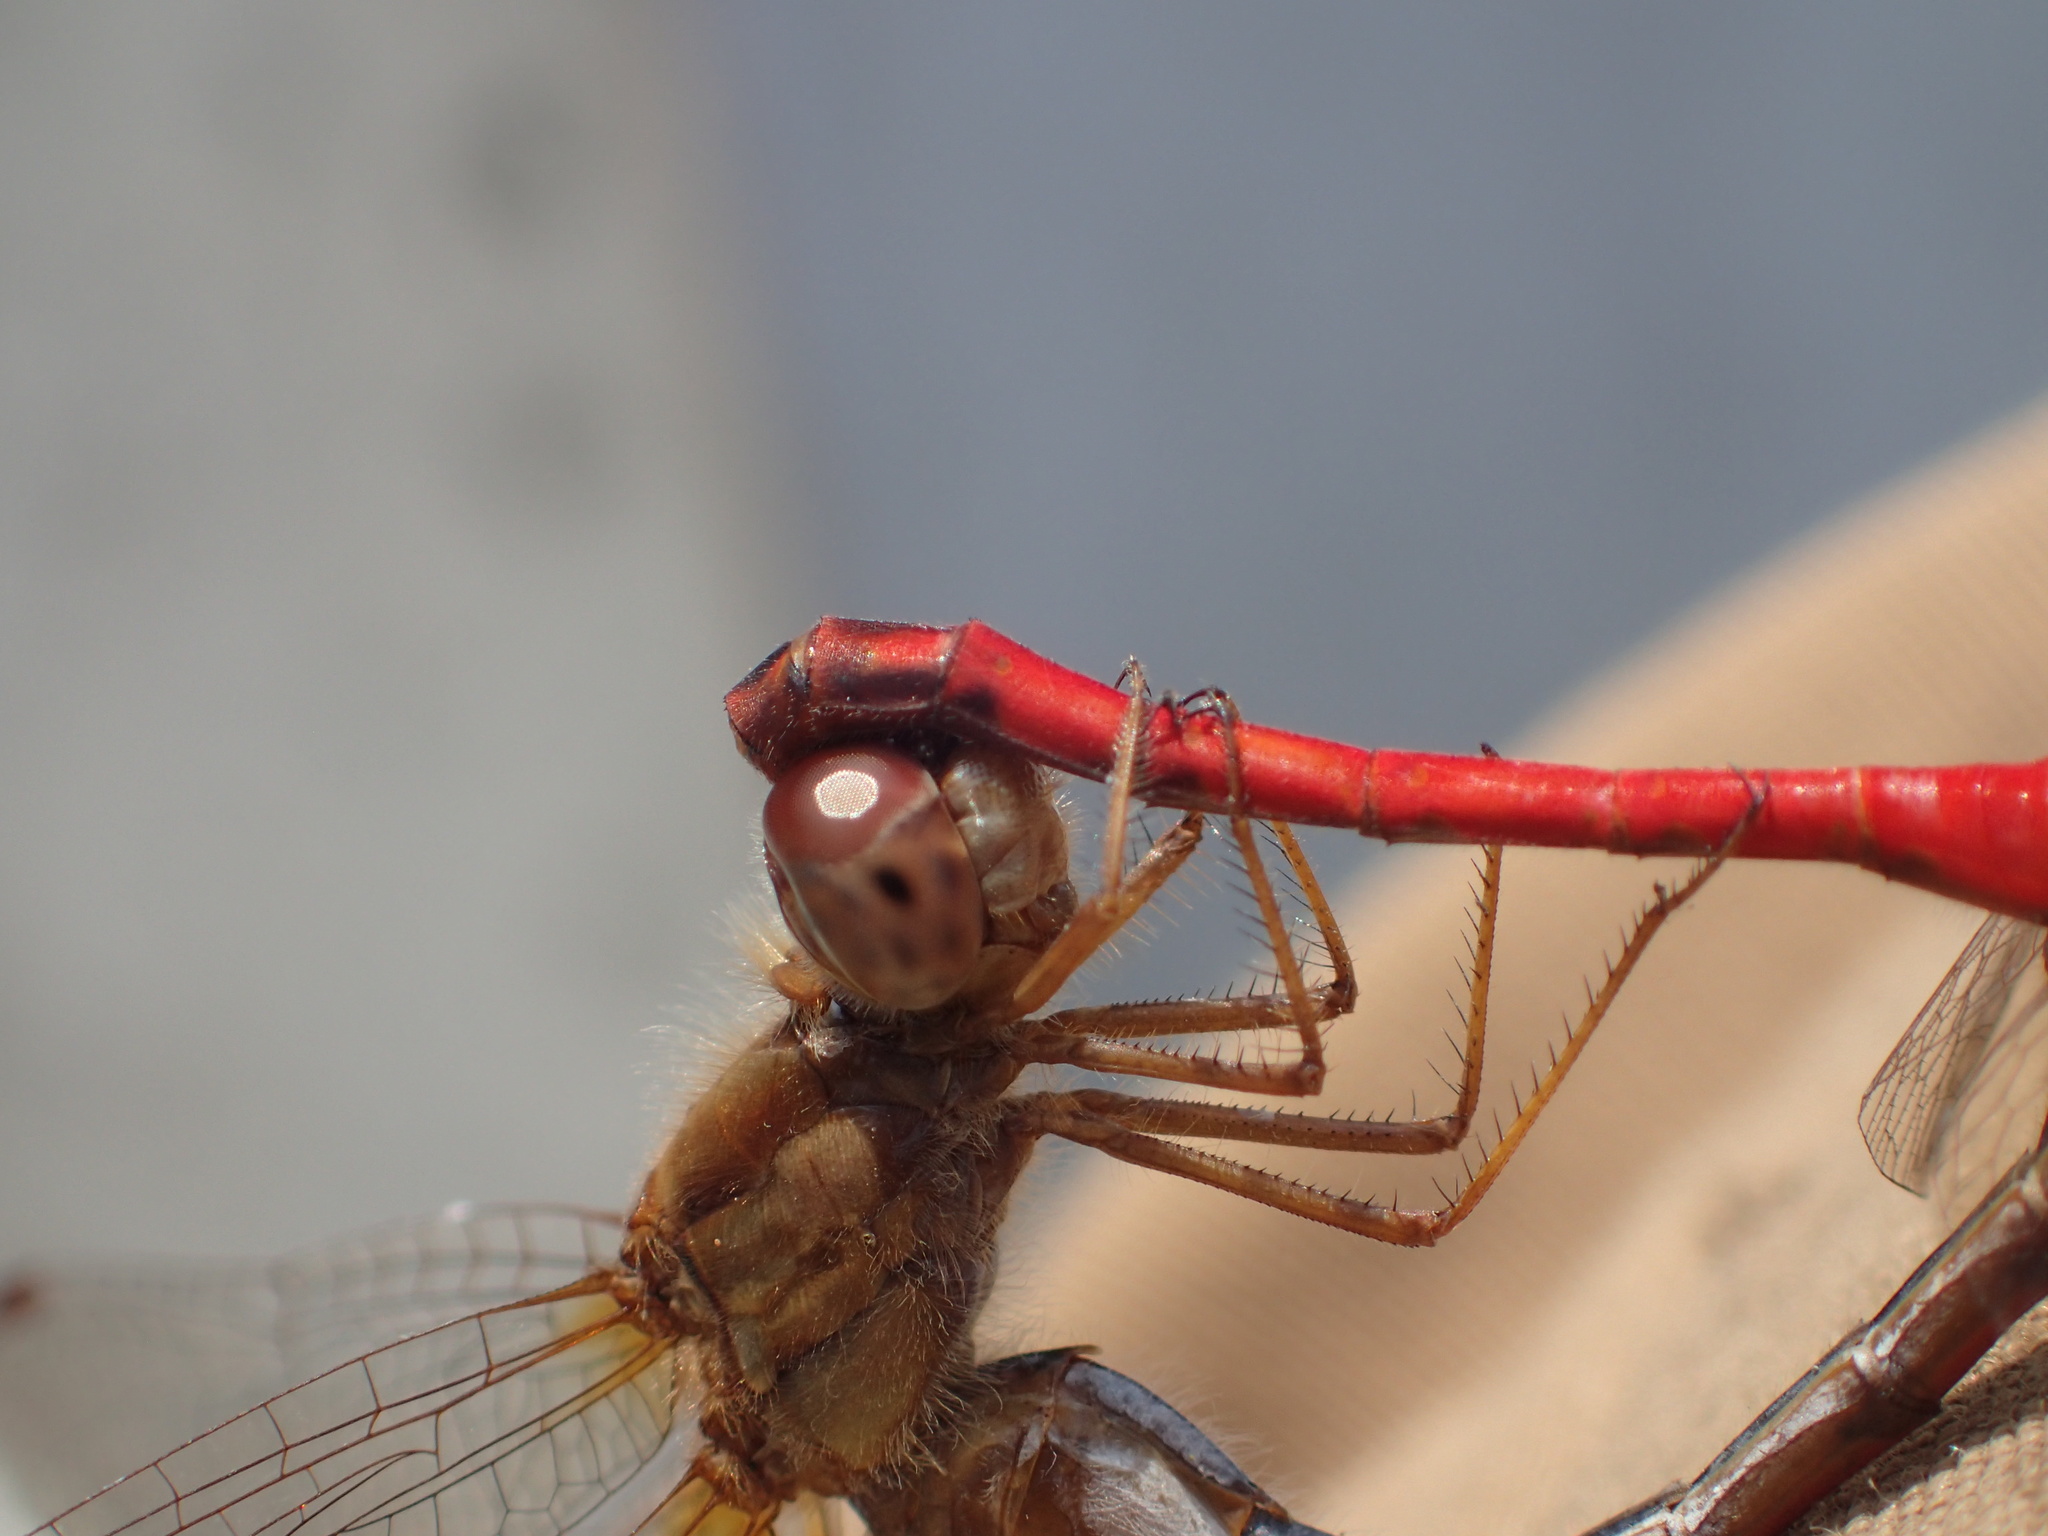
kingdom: Animalia
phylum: Arthropoda
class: Insecta
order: Odonata
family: Libellulidae
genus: Sympetrum
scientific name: Sympetrum vicinum
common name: Autumn meadowhawk
